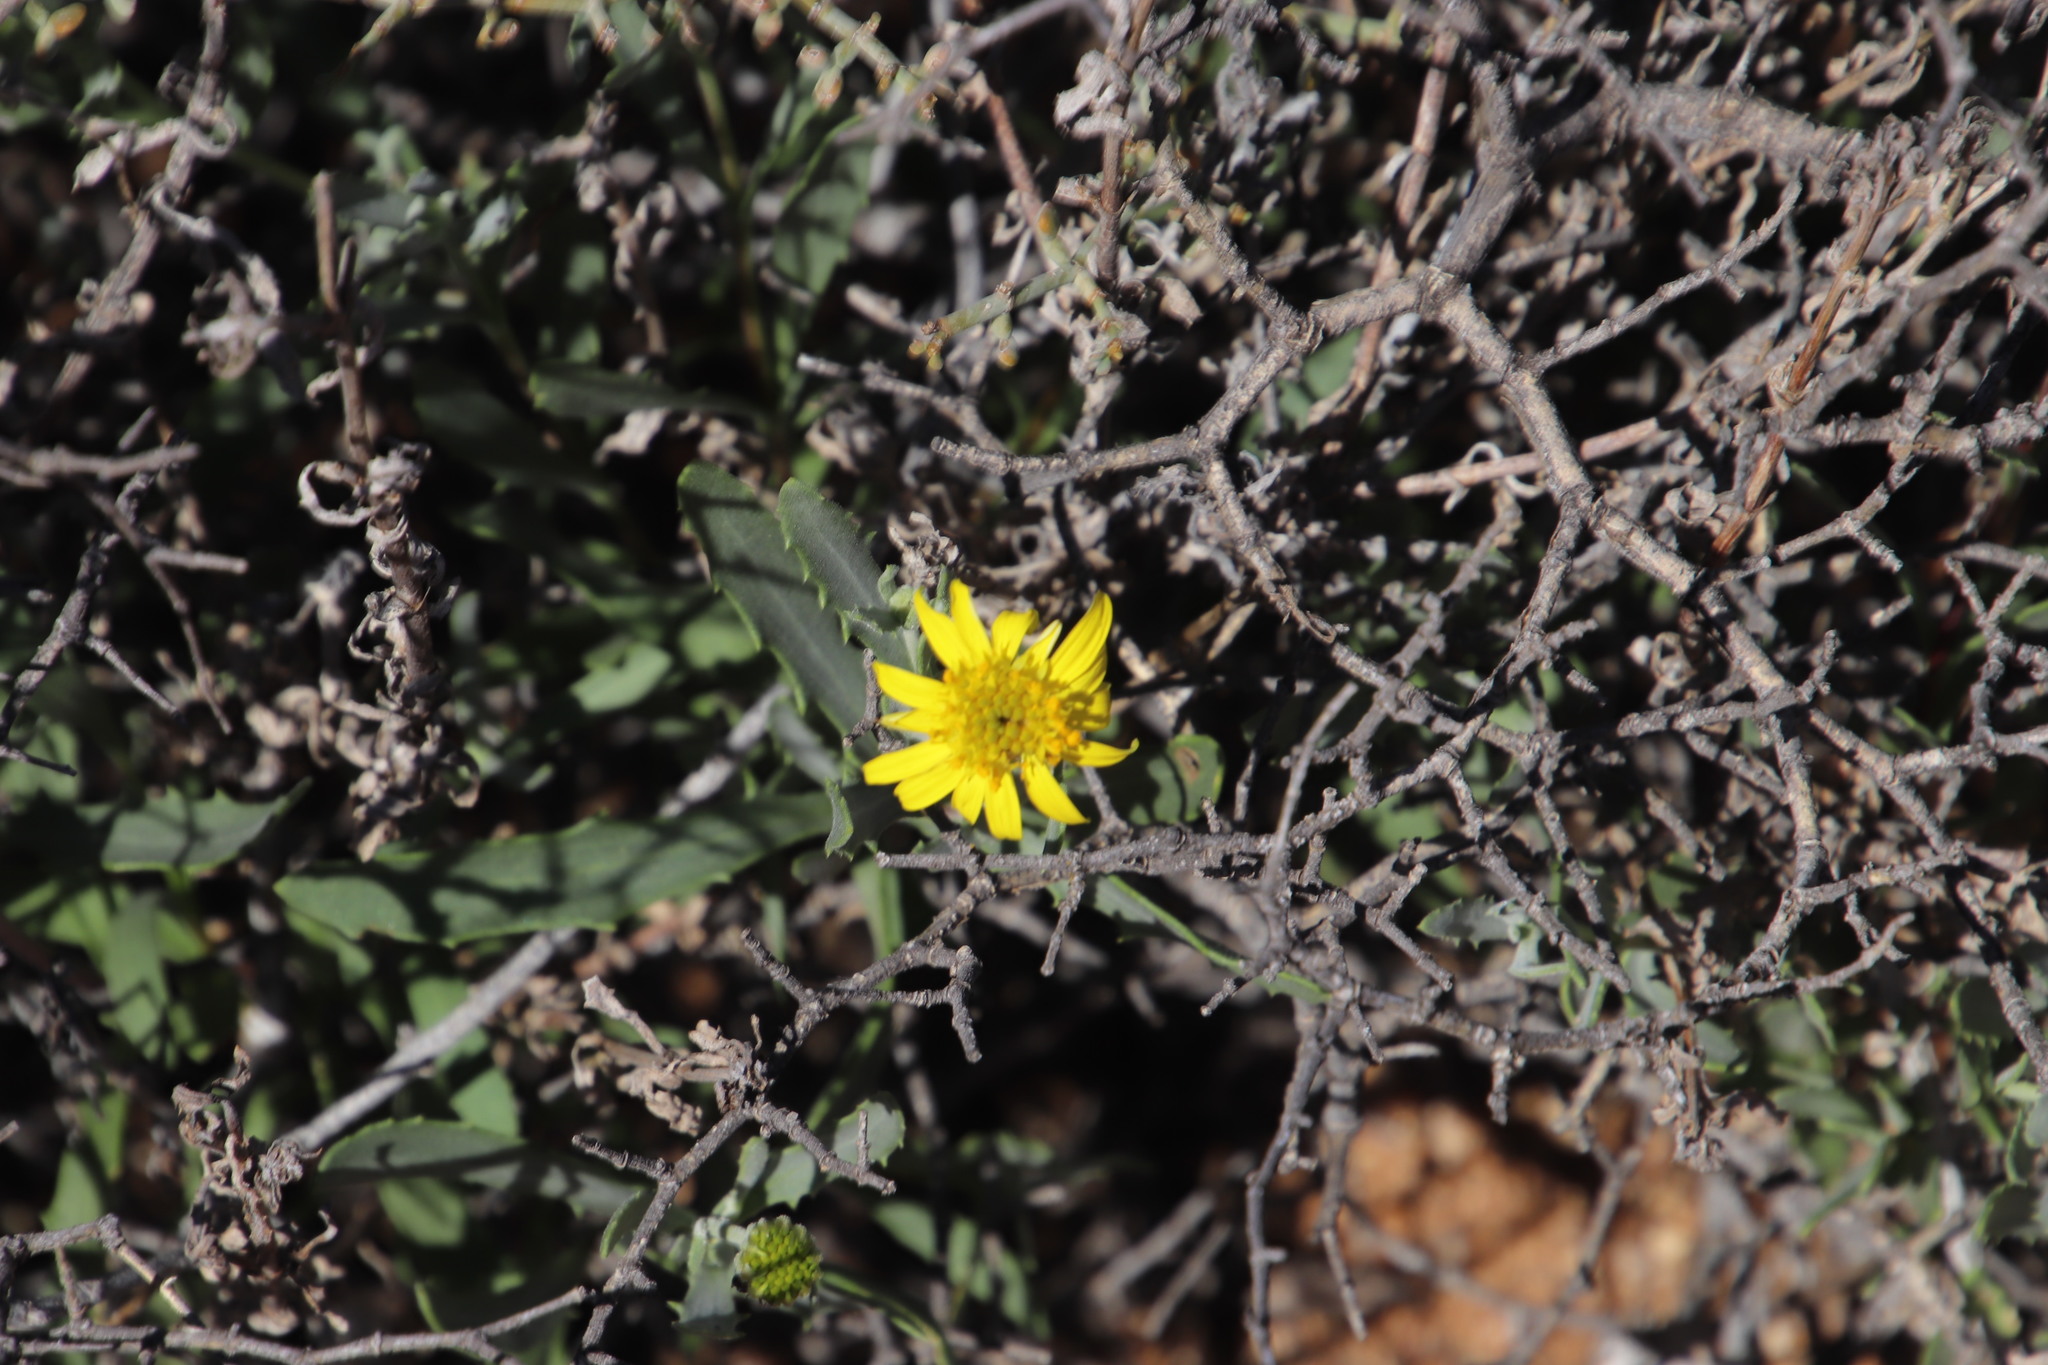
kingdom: Plantae
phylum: Tracheophyta
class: Magnoliopsida
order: Asterales
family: Asteraceae
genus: Osteospermum
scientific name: Osteospermum sinuatum
